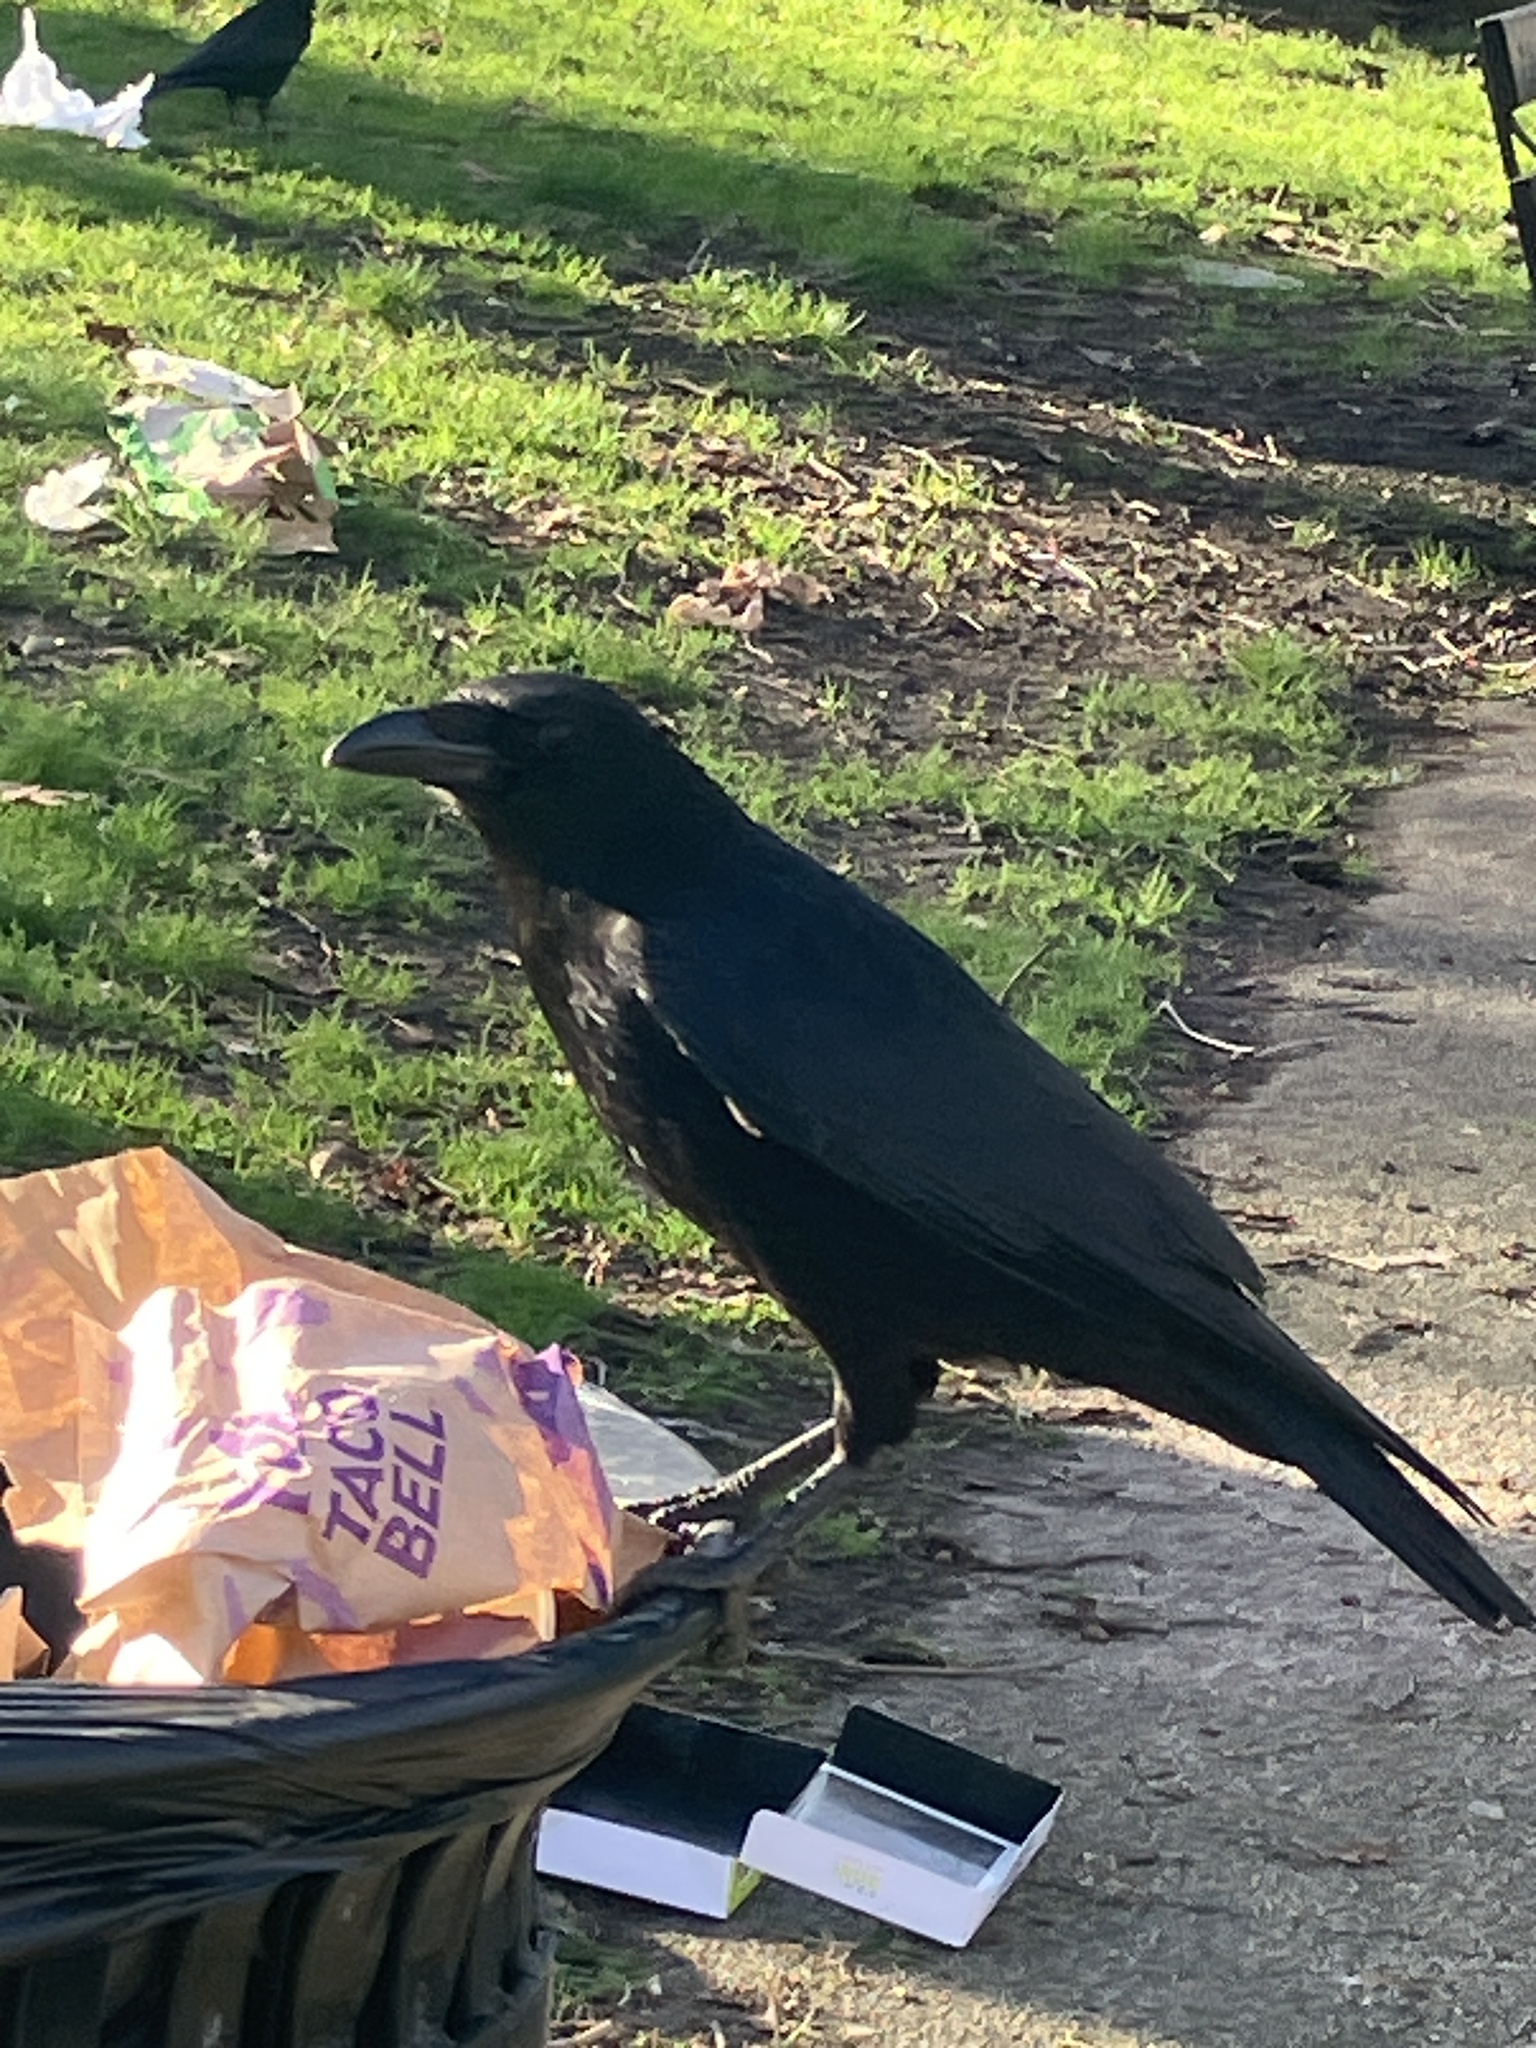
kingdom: Animalia
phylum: Chordata
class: Aves
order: Passeriformes
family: Corvidae
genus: Corvus
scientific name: Corvus corone
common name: Carrion crow
